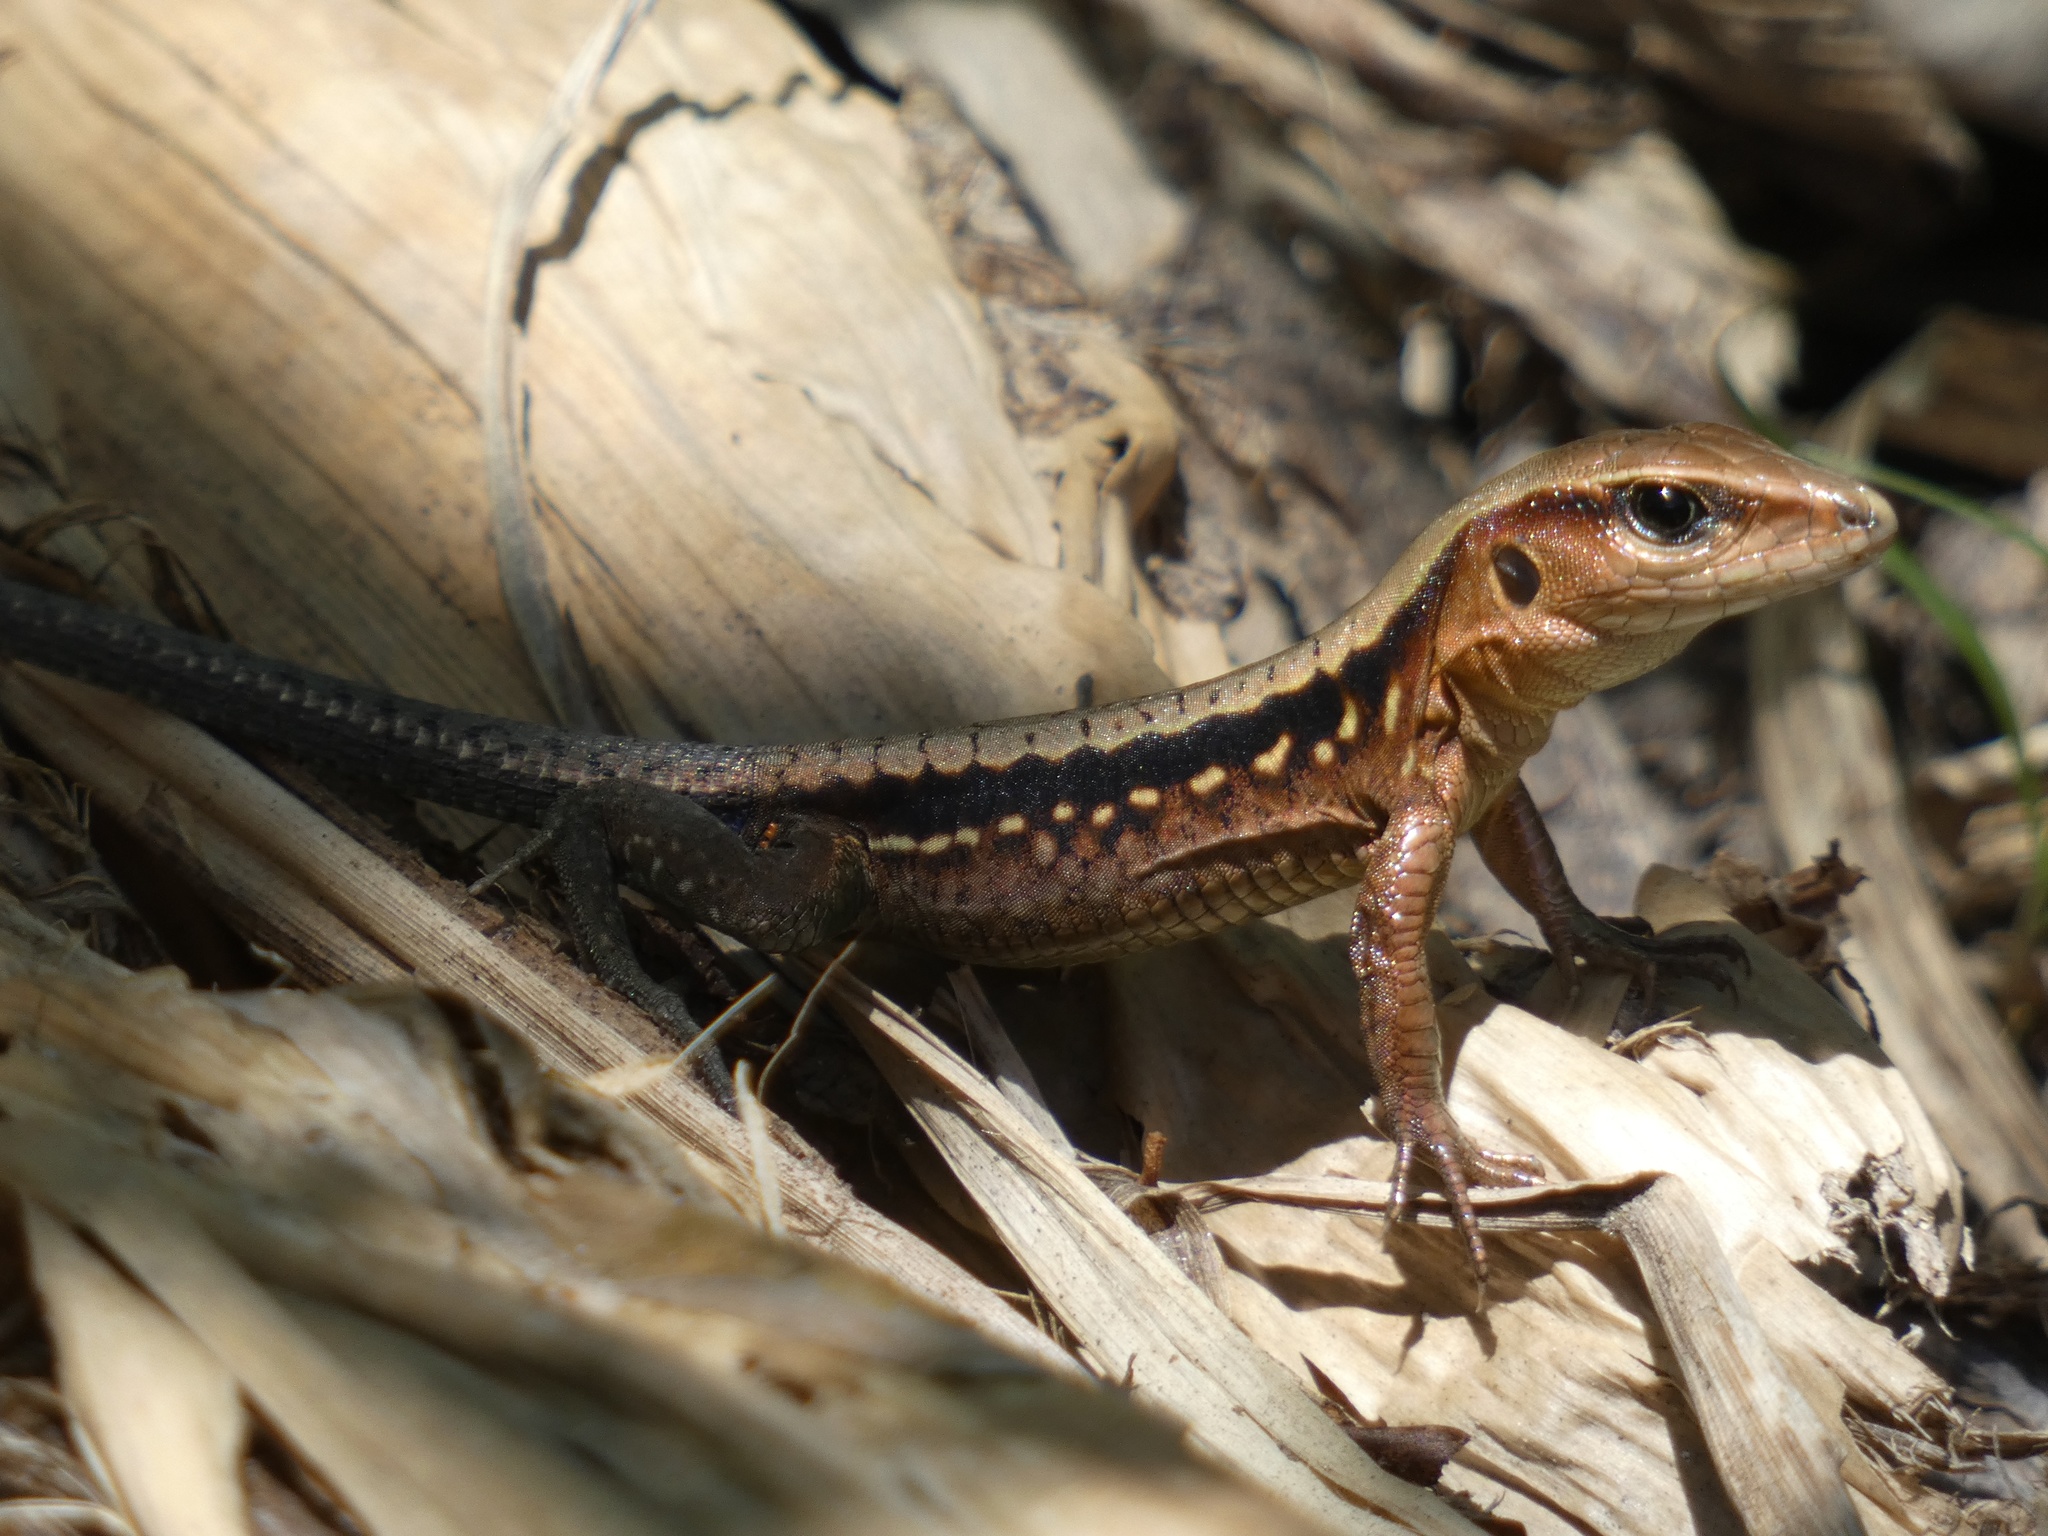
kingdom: Animalia
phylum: Chordata
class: Squamata
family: Teiidae
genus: Holcosus
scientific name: Holcosus leptophrys
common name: Delicate ameiva
